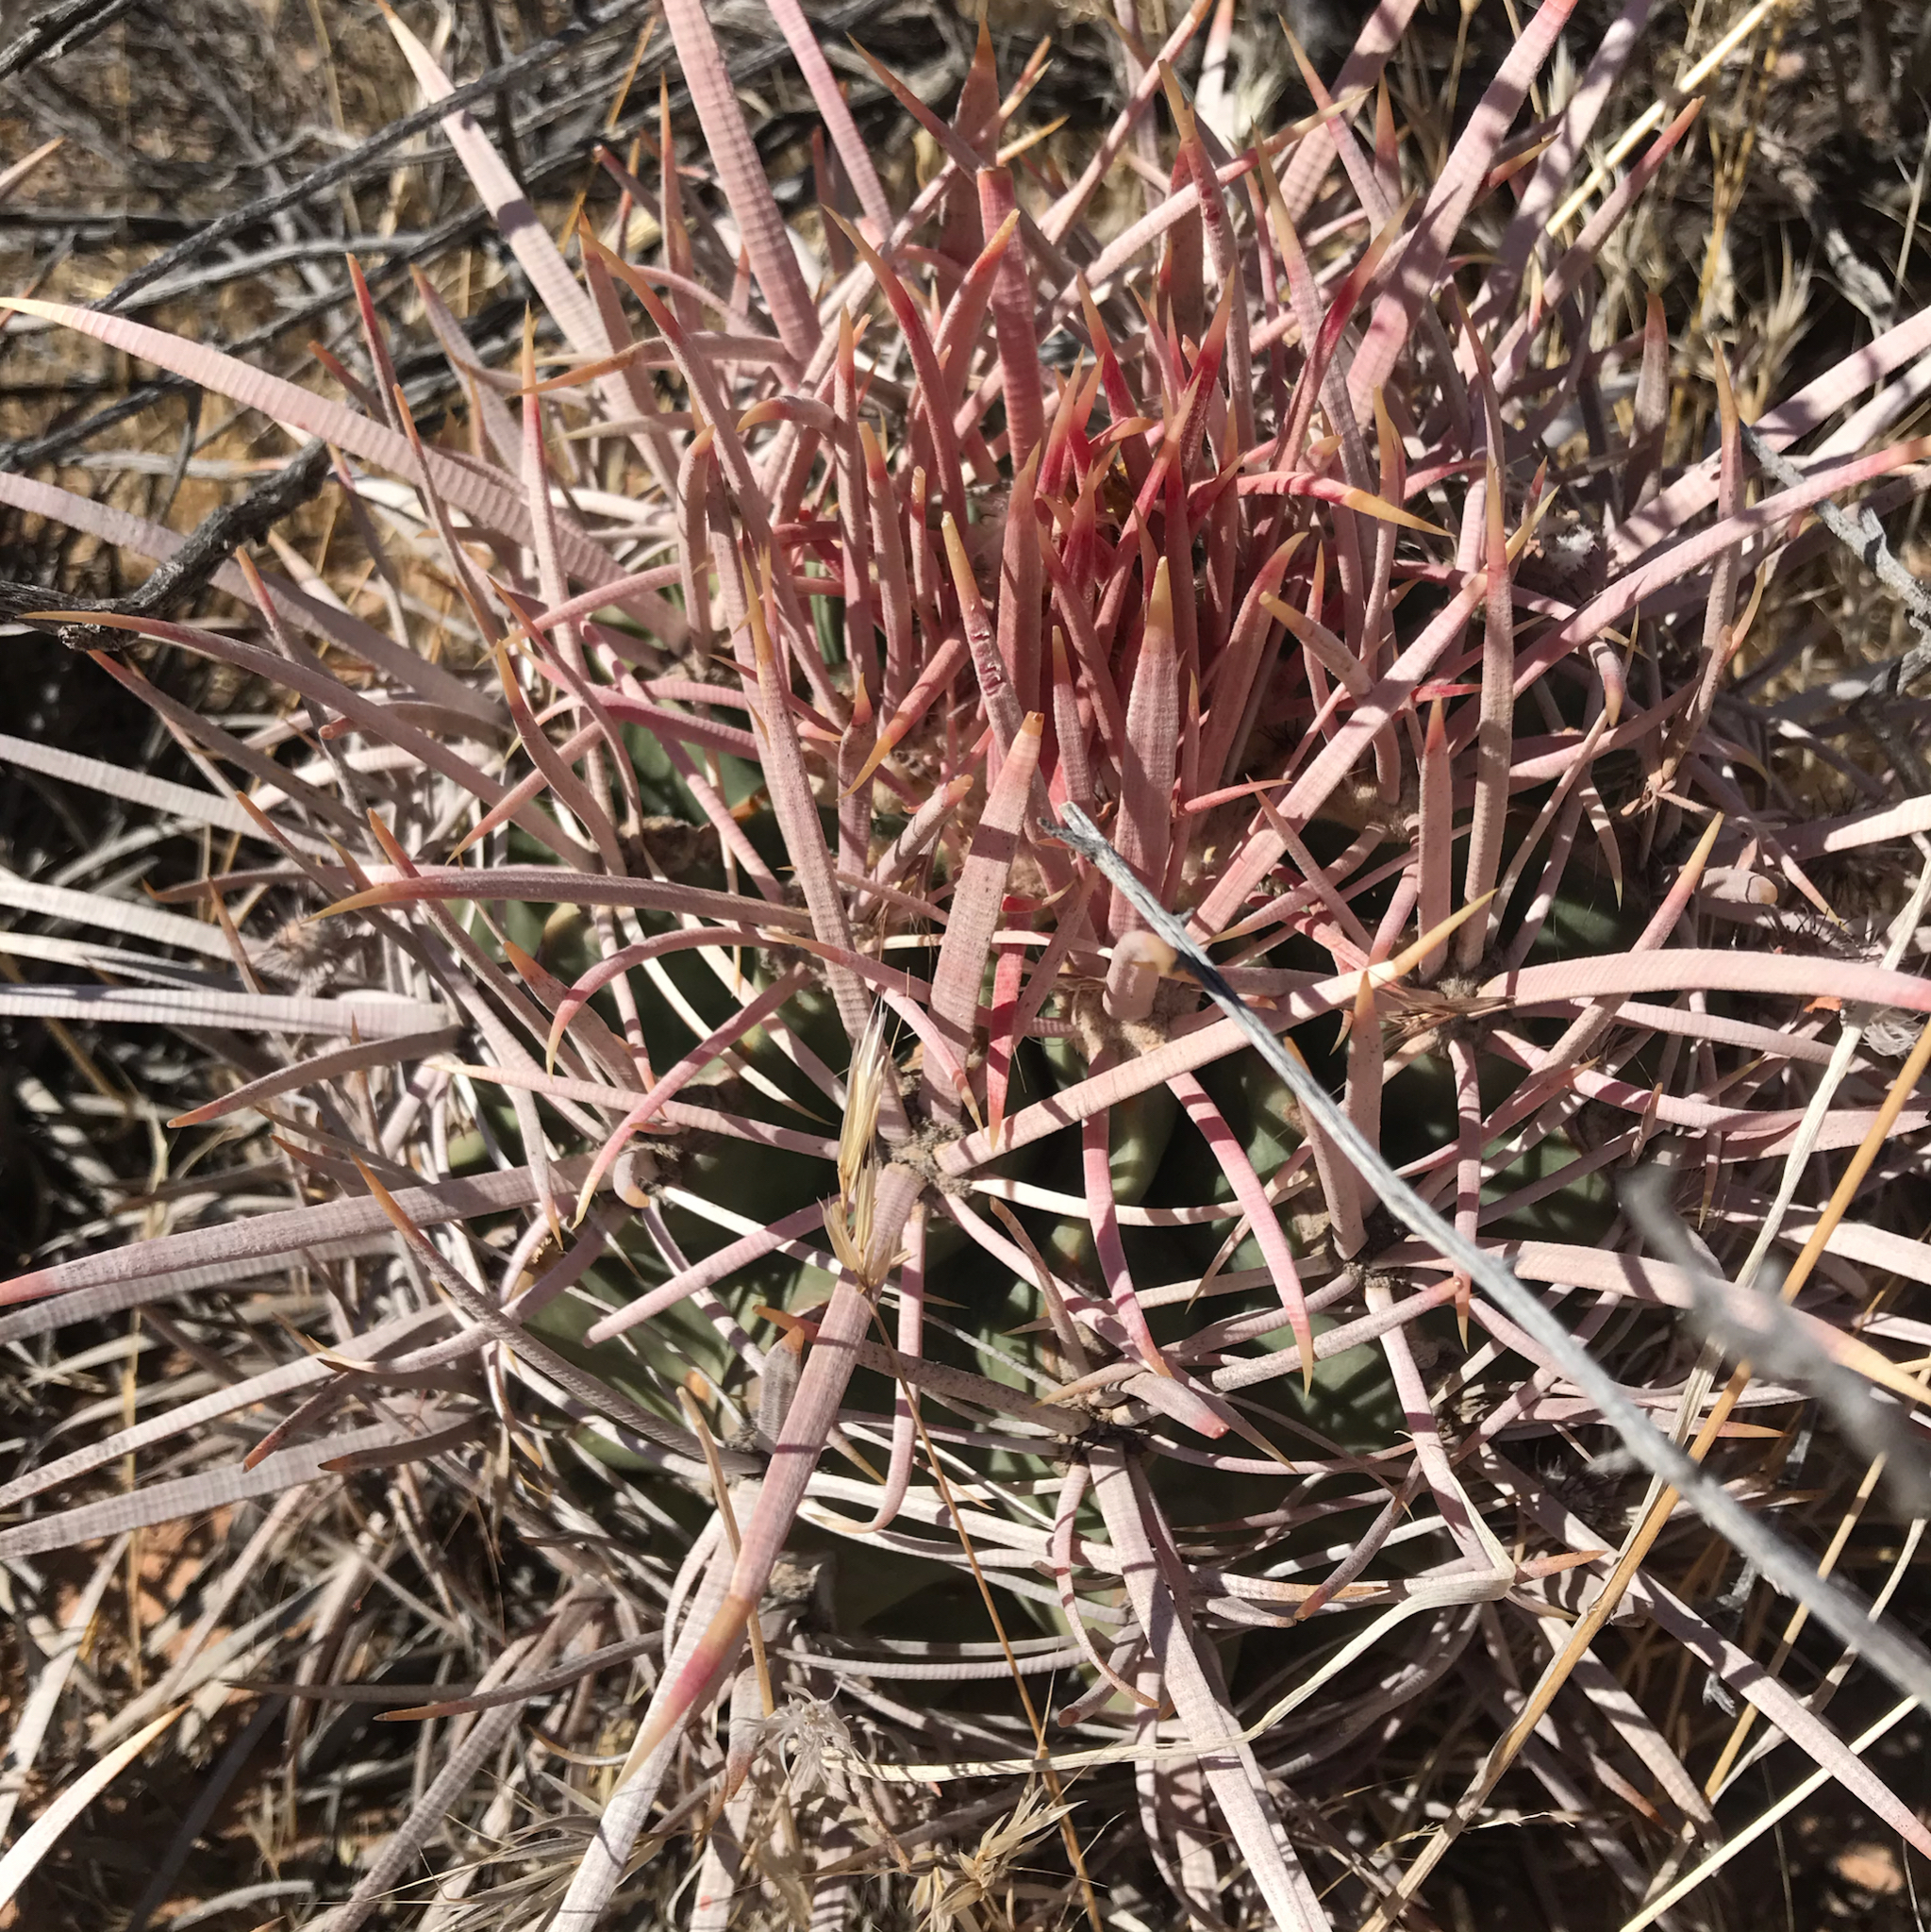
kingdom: Plantae
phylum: Tracheophyta
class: Magnoliopsida
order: Caryophyllales
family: Cactaceae
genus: Echinocactus
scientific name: Echinocactus polycephalus
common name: Cottontop cactus
